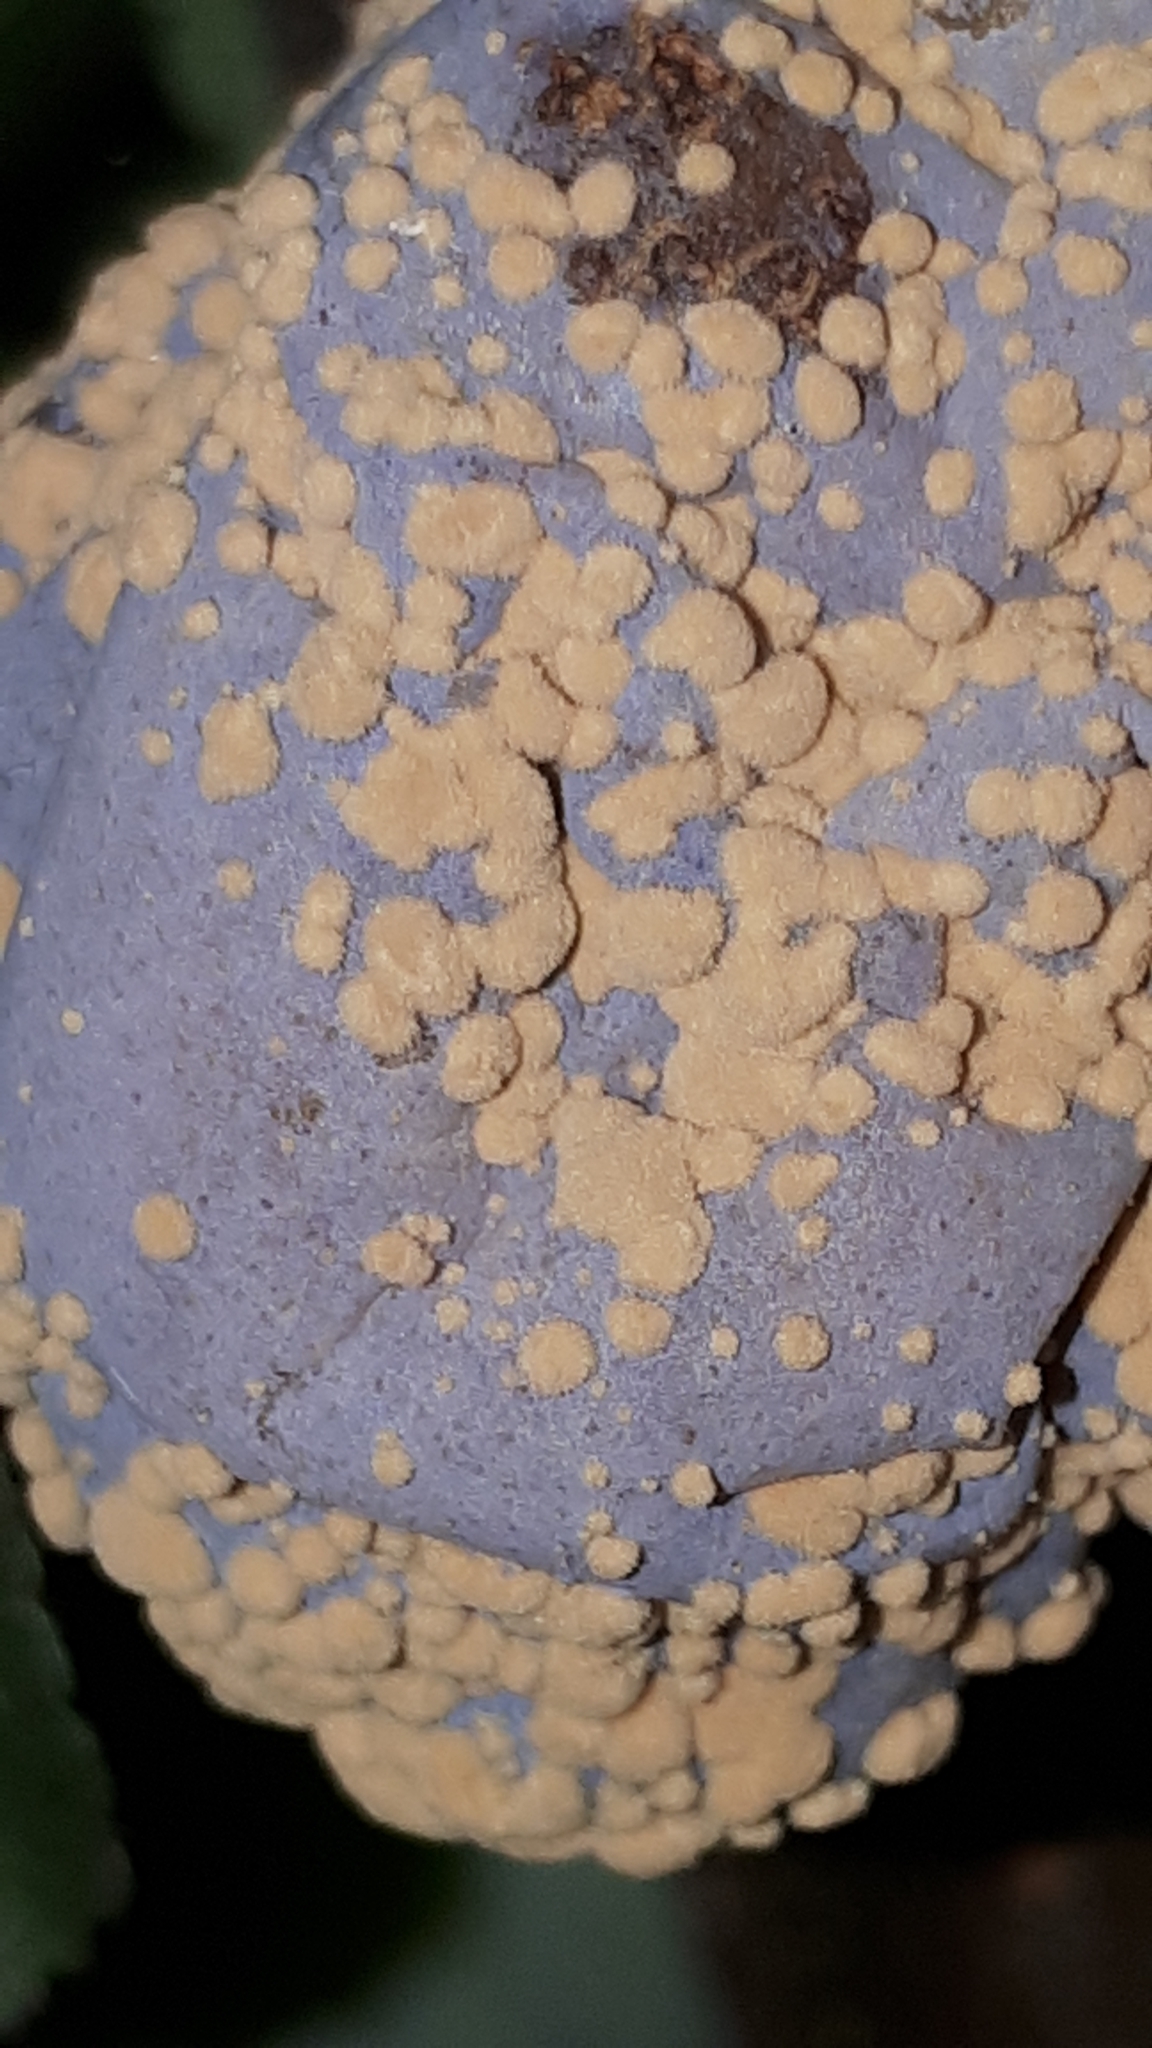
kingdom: Fungi
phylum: Ascomycota
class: Leotiomycetes
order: Helotiales
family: Sclerotiniaceae
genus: Monilinia
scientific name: Monilinia laxa
